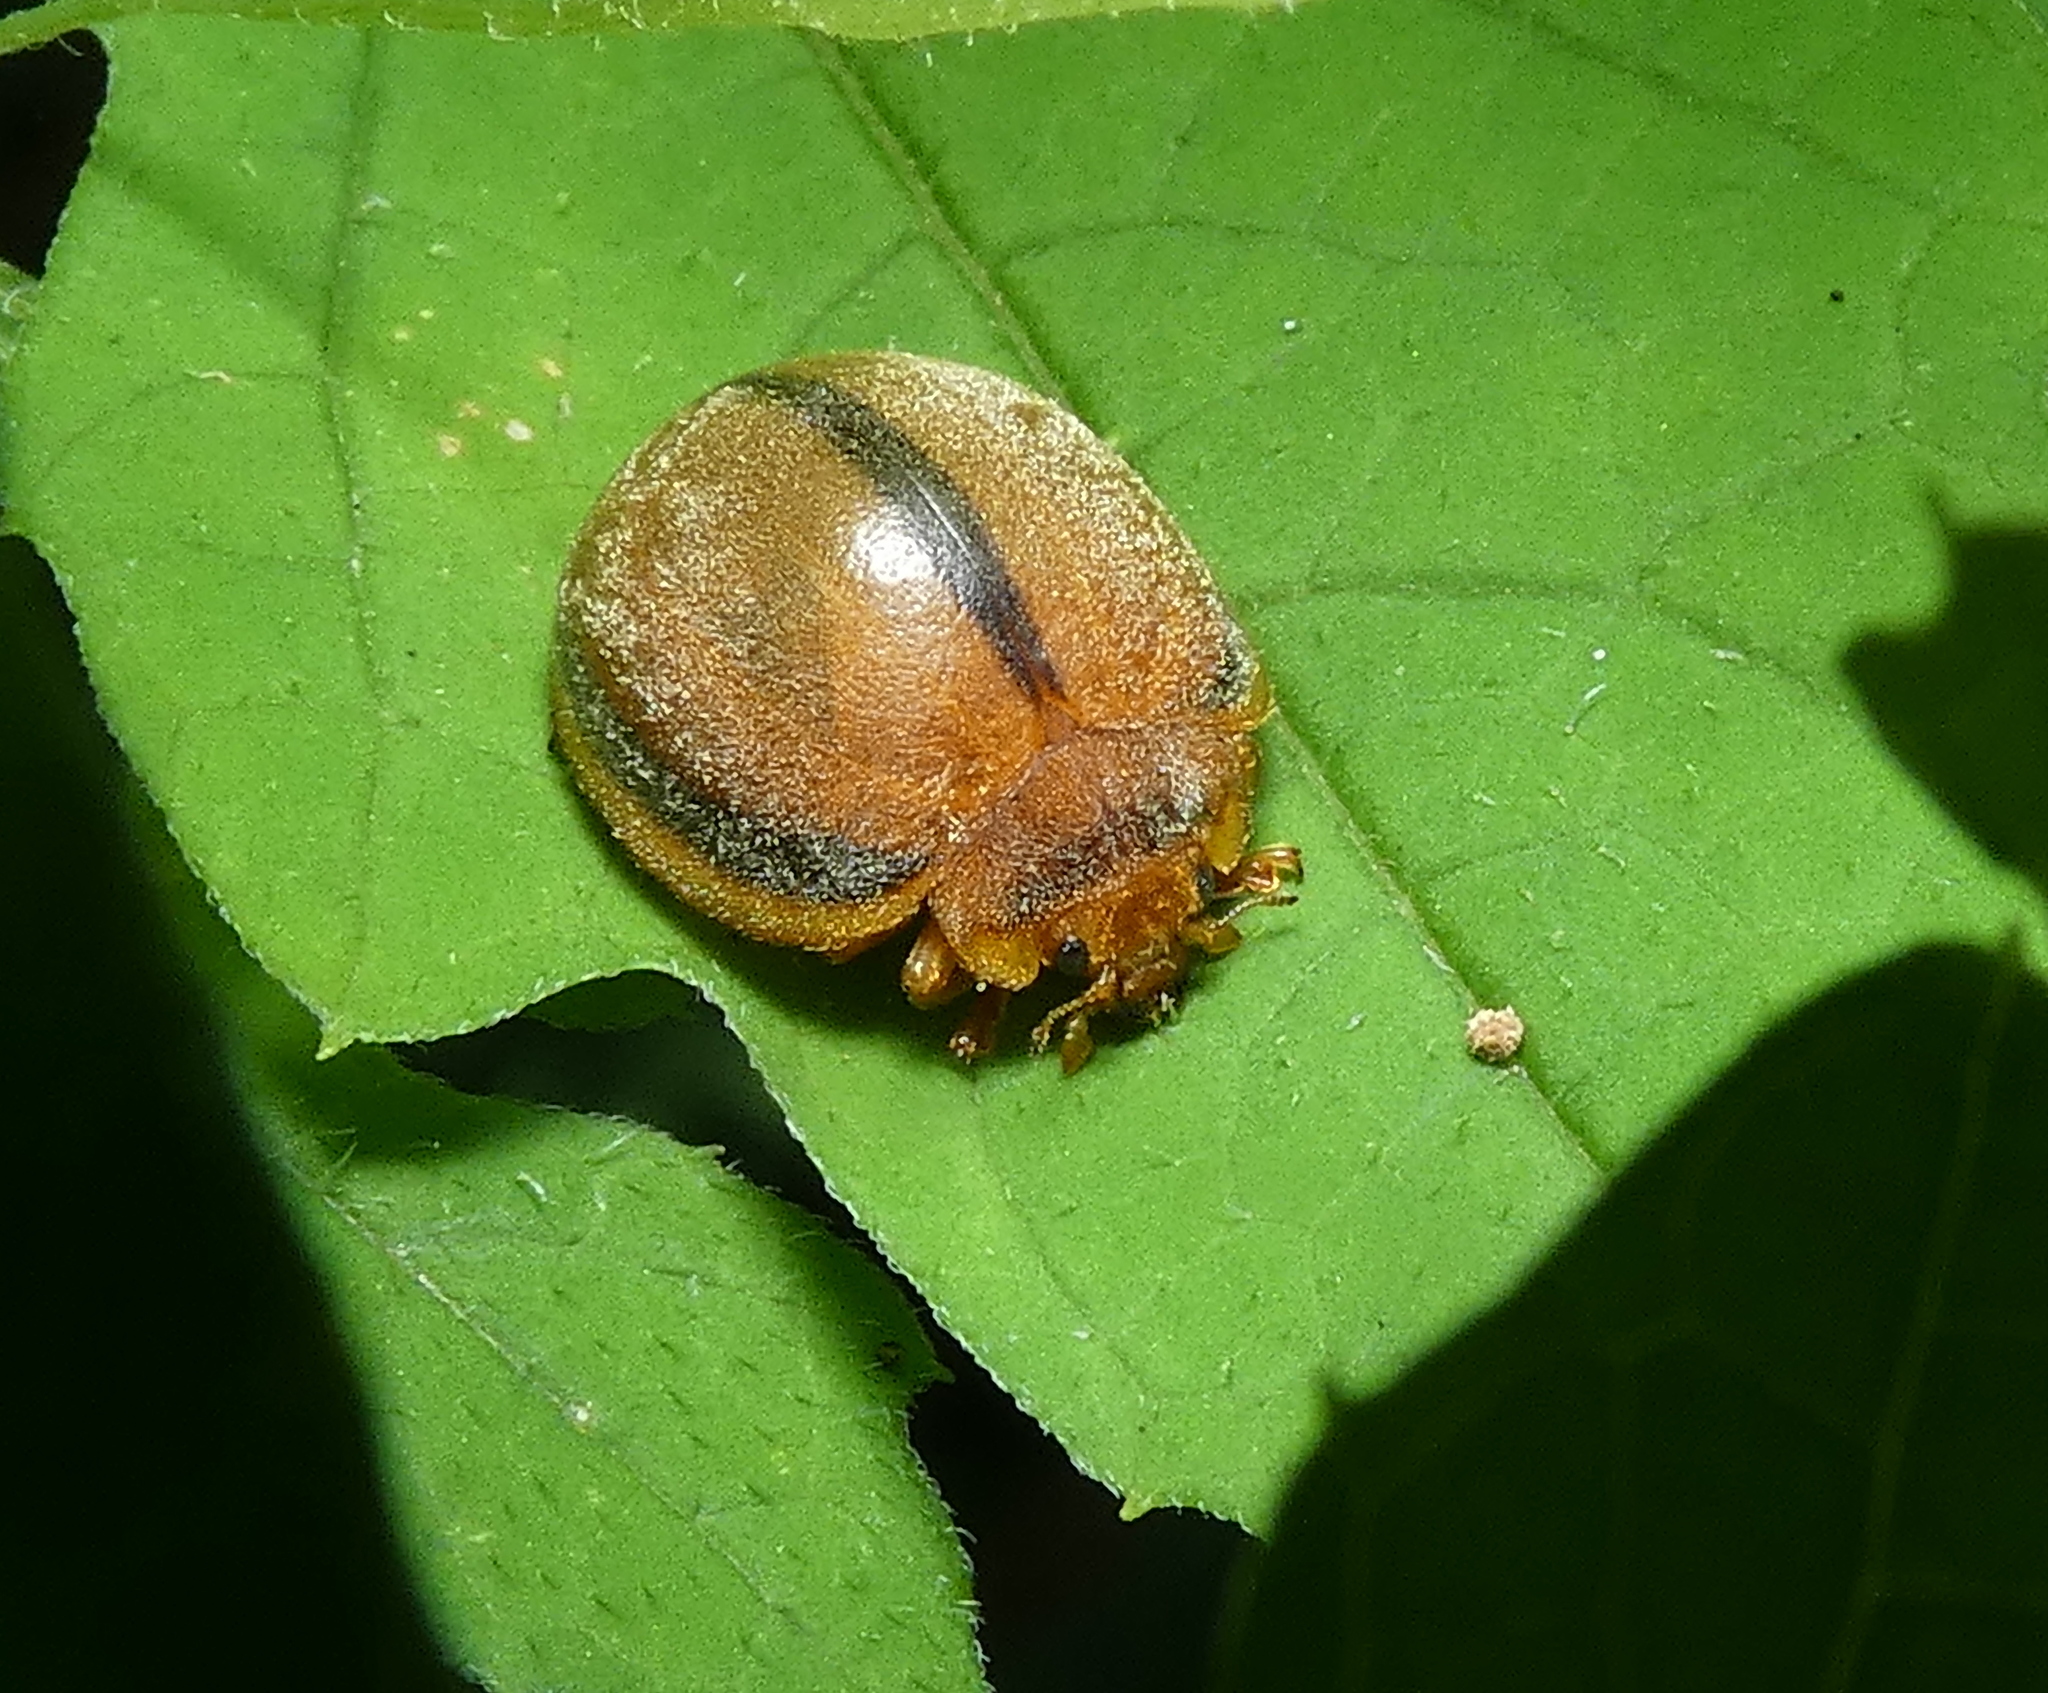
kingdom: Animalia
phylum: Arthropoda
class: Insecta
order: Coleoptera
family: Coccinellidae
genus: Epilachna
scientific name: Epilachna cacica
